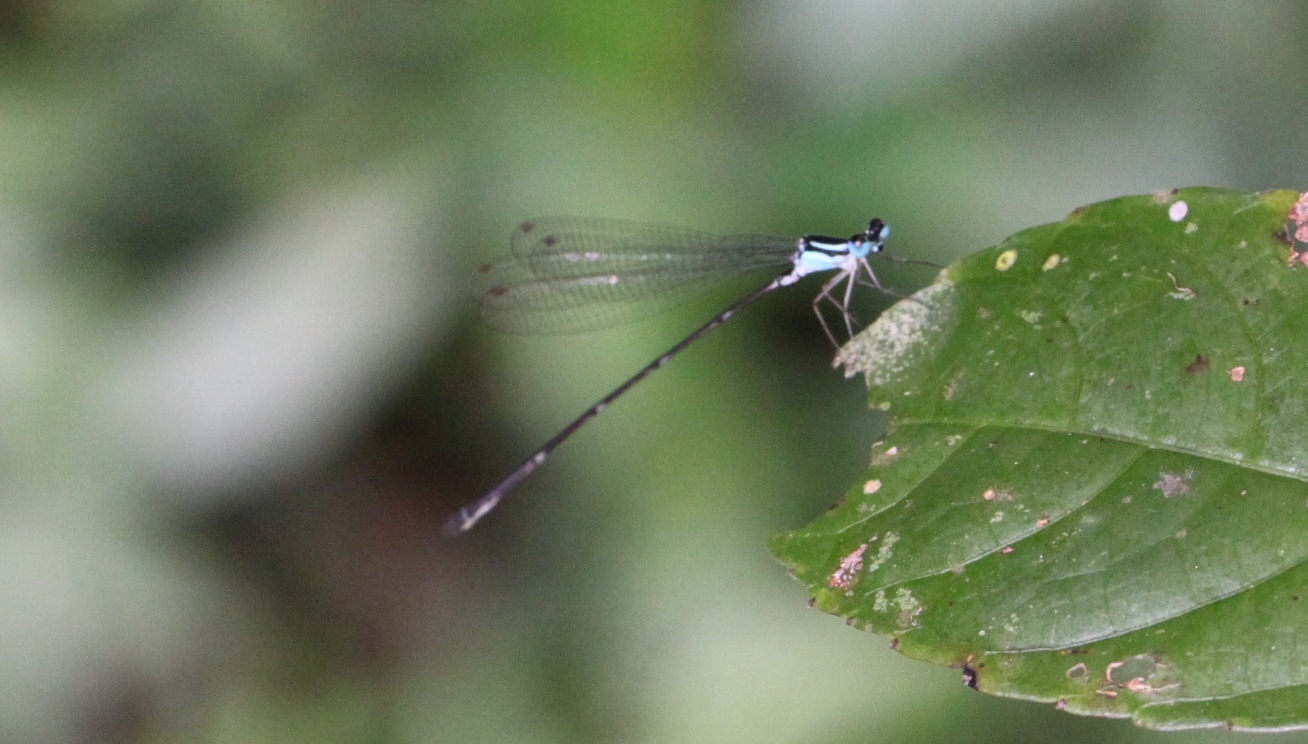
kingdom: Animalia
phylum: Arthropoda
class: Insecta
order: Odonata
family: Platycnemididae
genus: Coeliccia
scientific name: Coeliccia loogali
